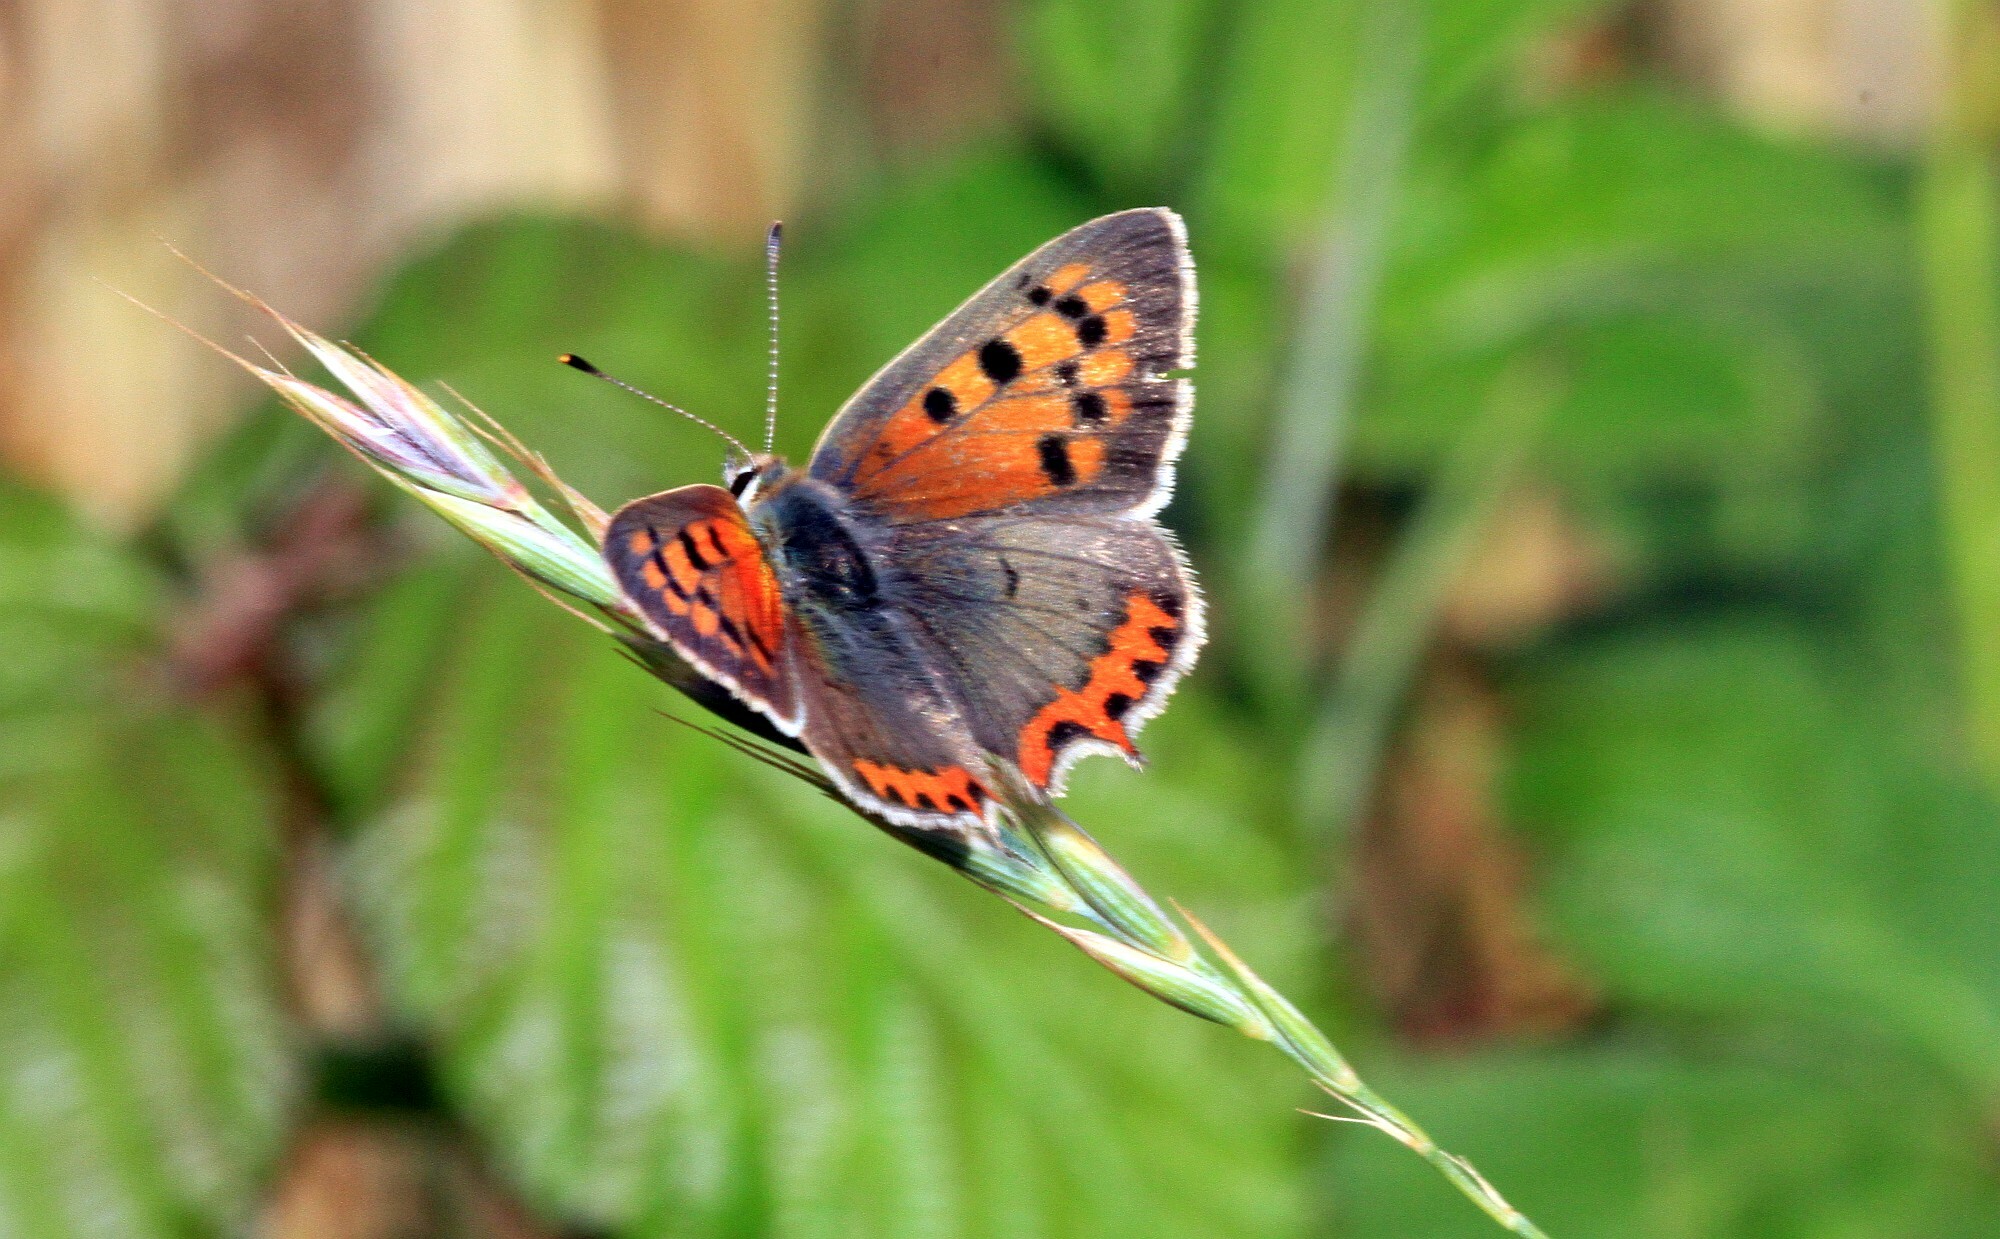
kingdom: Animalia
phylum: Arthropoda
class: Insecta
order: Lepidoptera
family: Lycaenidae
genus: Lycaena
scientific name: Lycaena phlaeas
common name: Small copper
